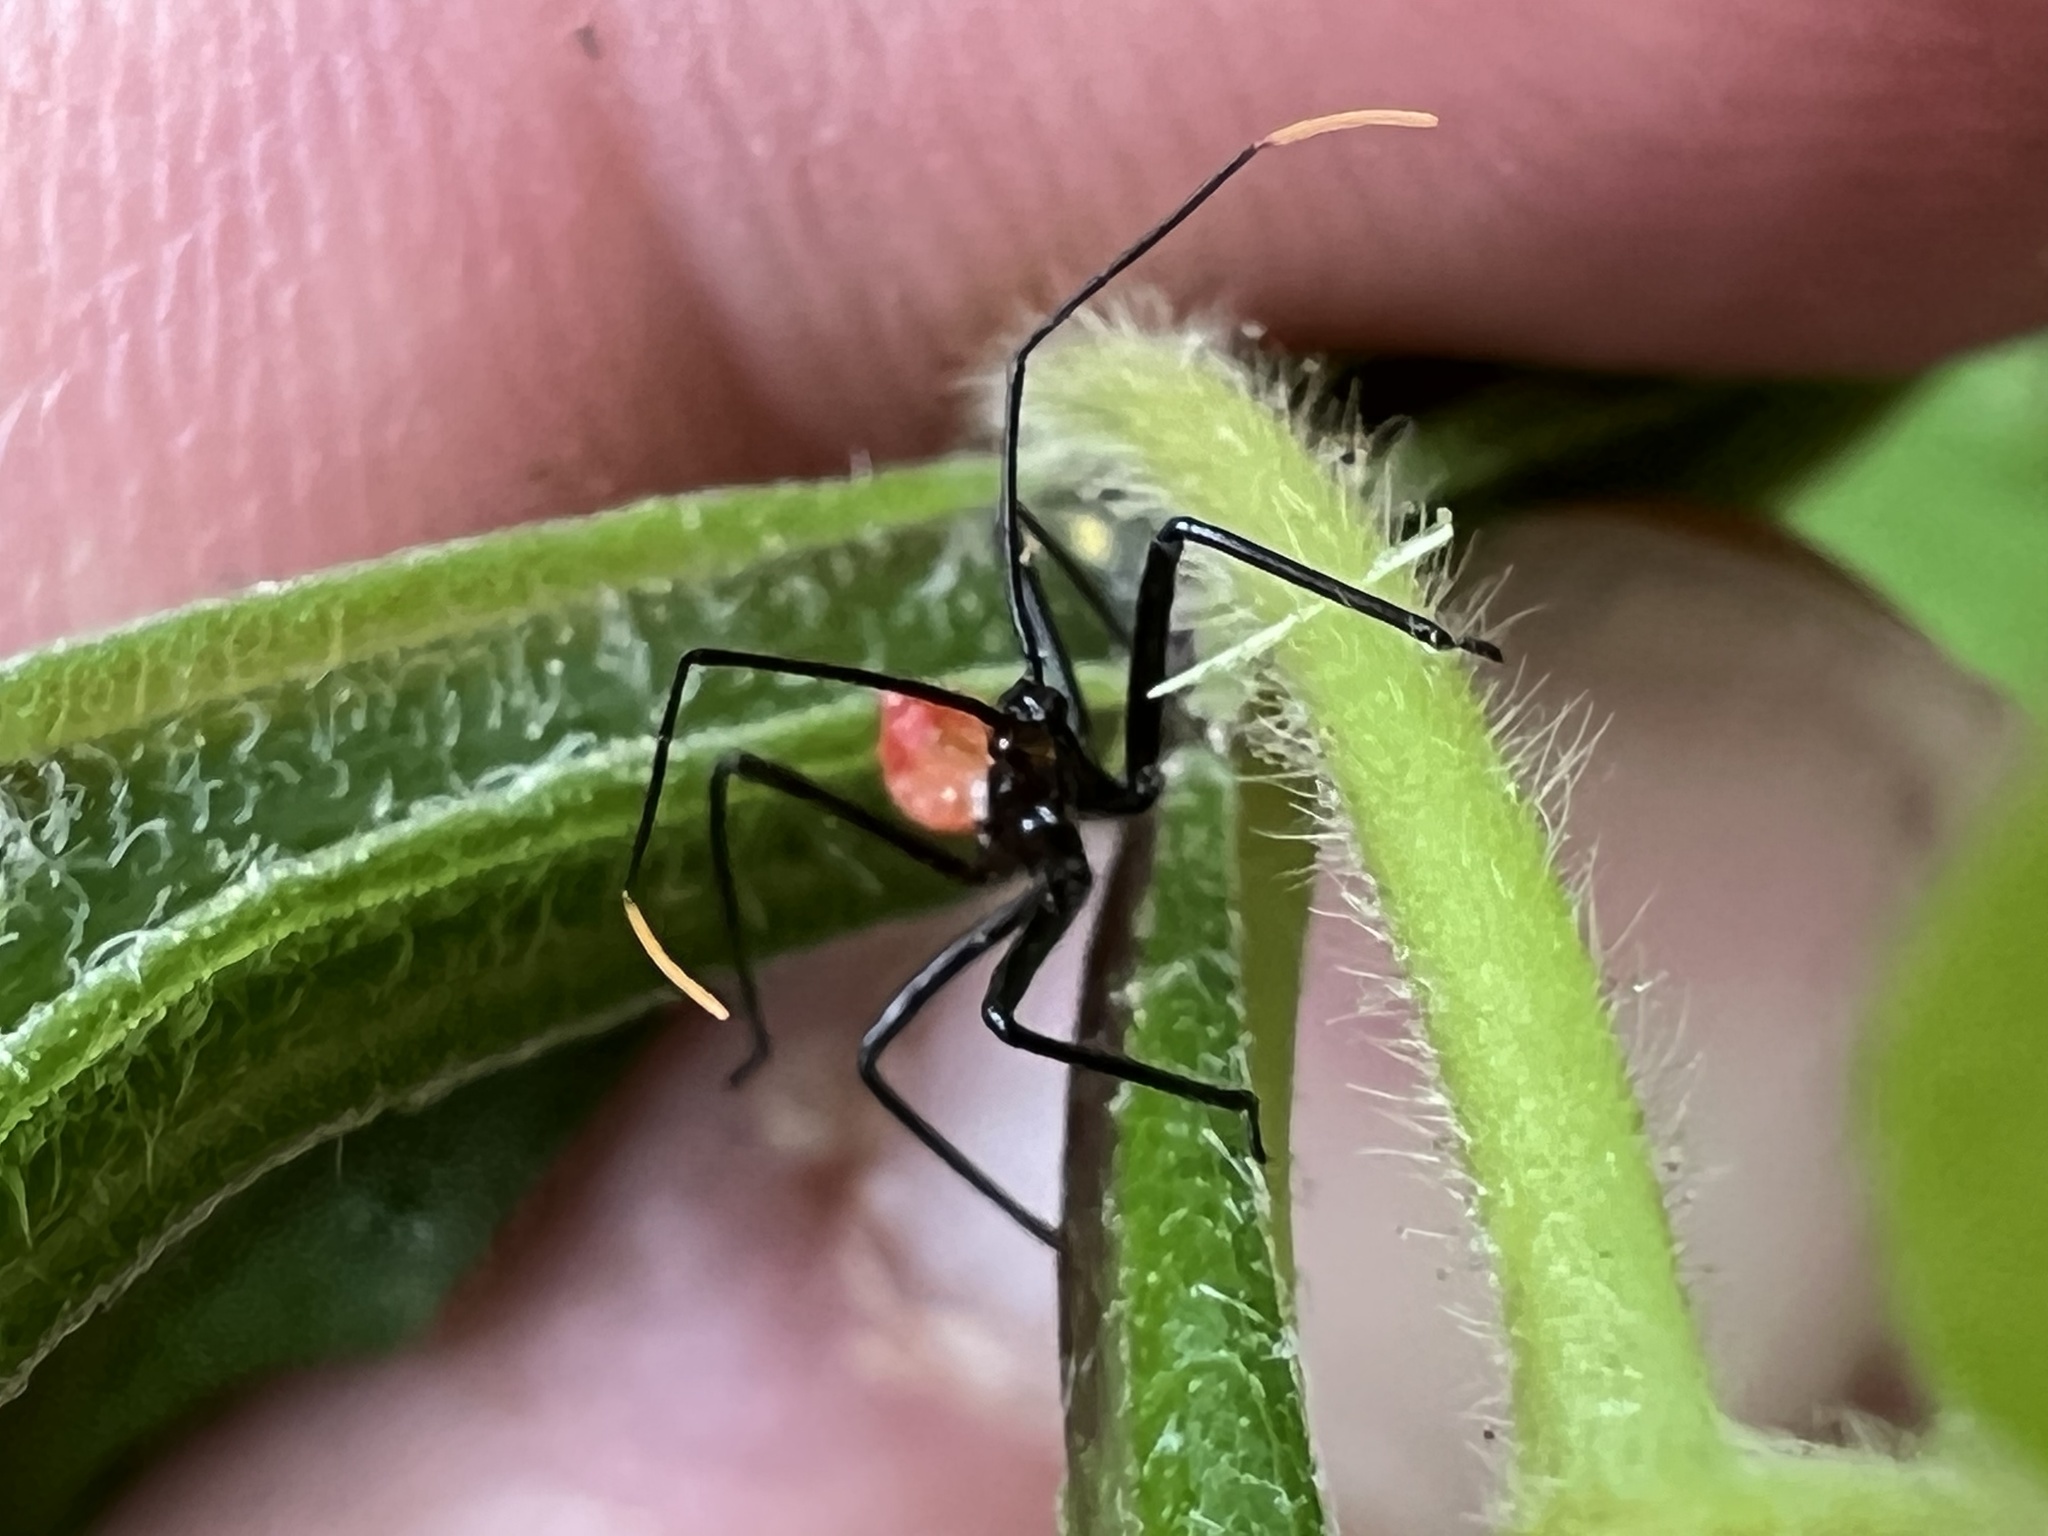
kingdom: Animalia
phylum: Arthropoda
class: Insecta
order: Hemiptera
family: Reduviidae
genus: Arilus
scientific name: Arilus cristatus
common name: North american wheel bug
